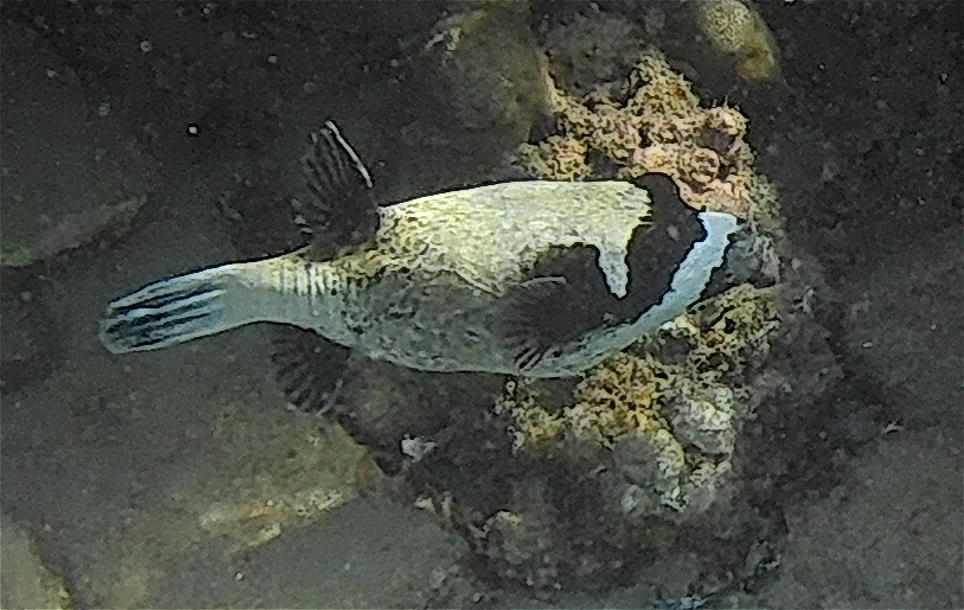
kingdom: Animalia
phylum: Chordata
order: Tetraodontiformes
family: Tetraodontidae
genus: Arothron
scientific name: Arothron diadematus
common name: Masked puffer
